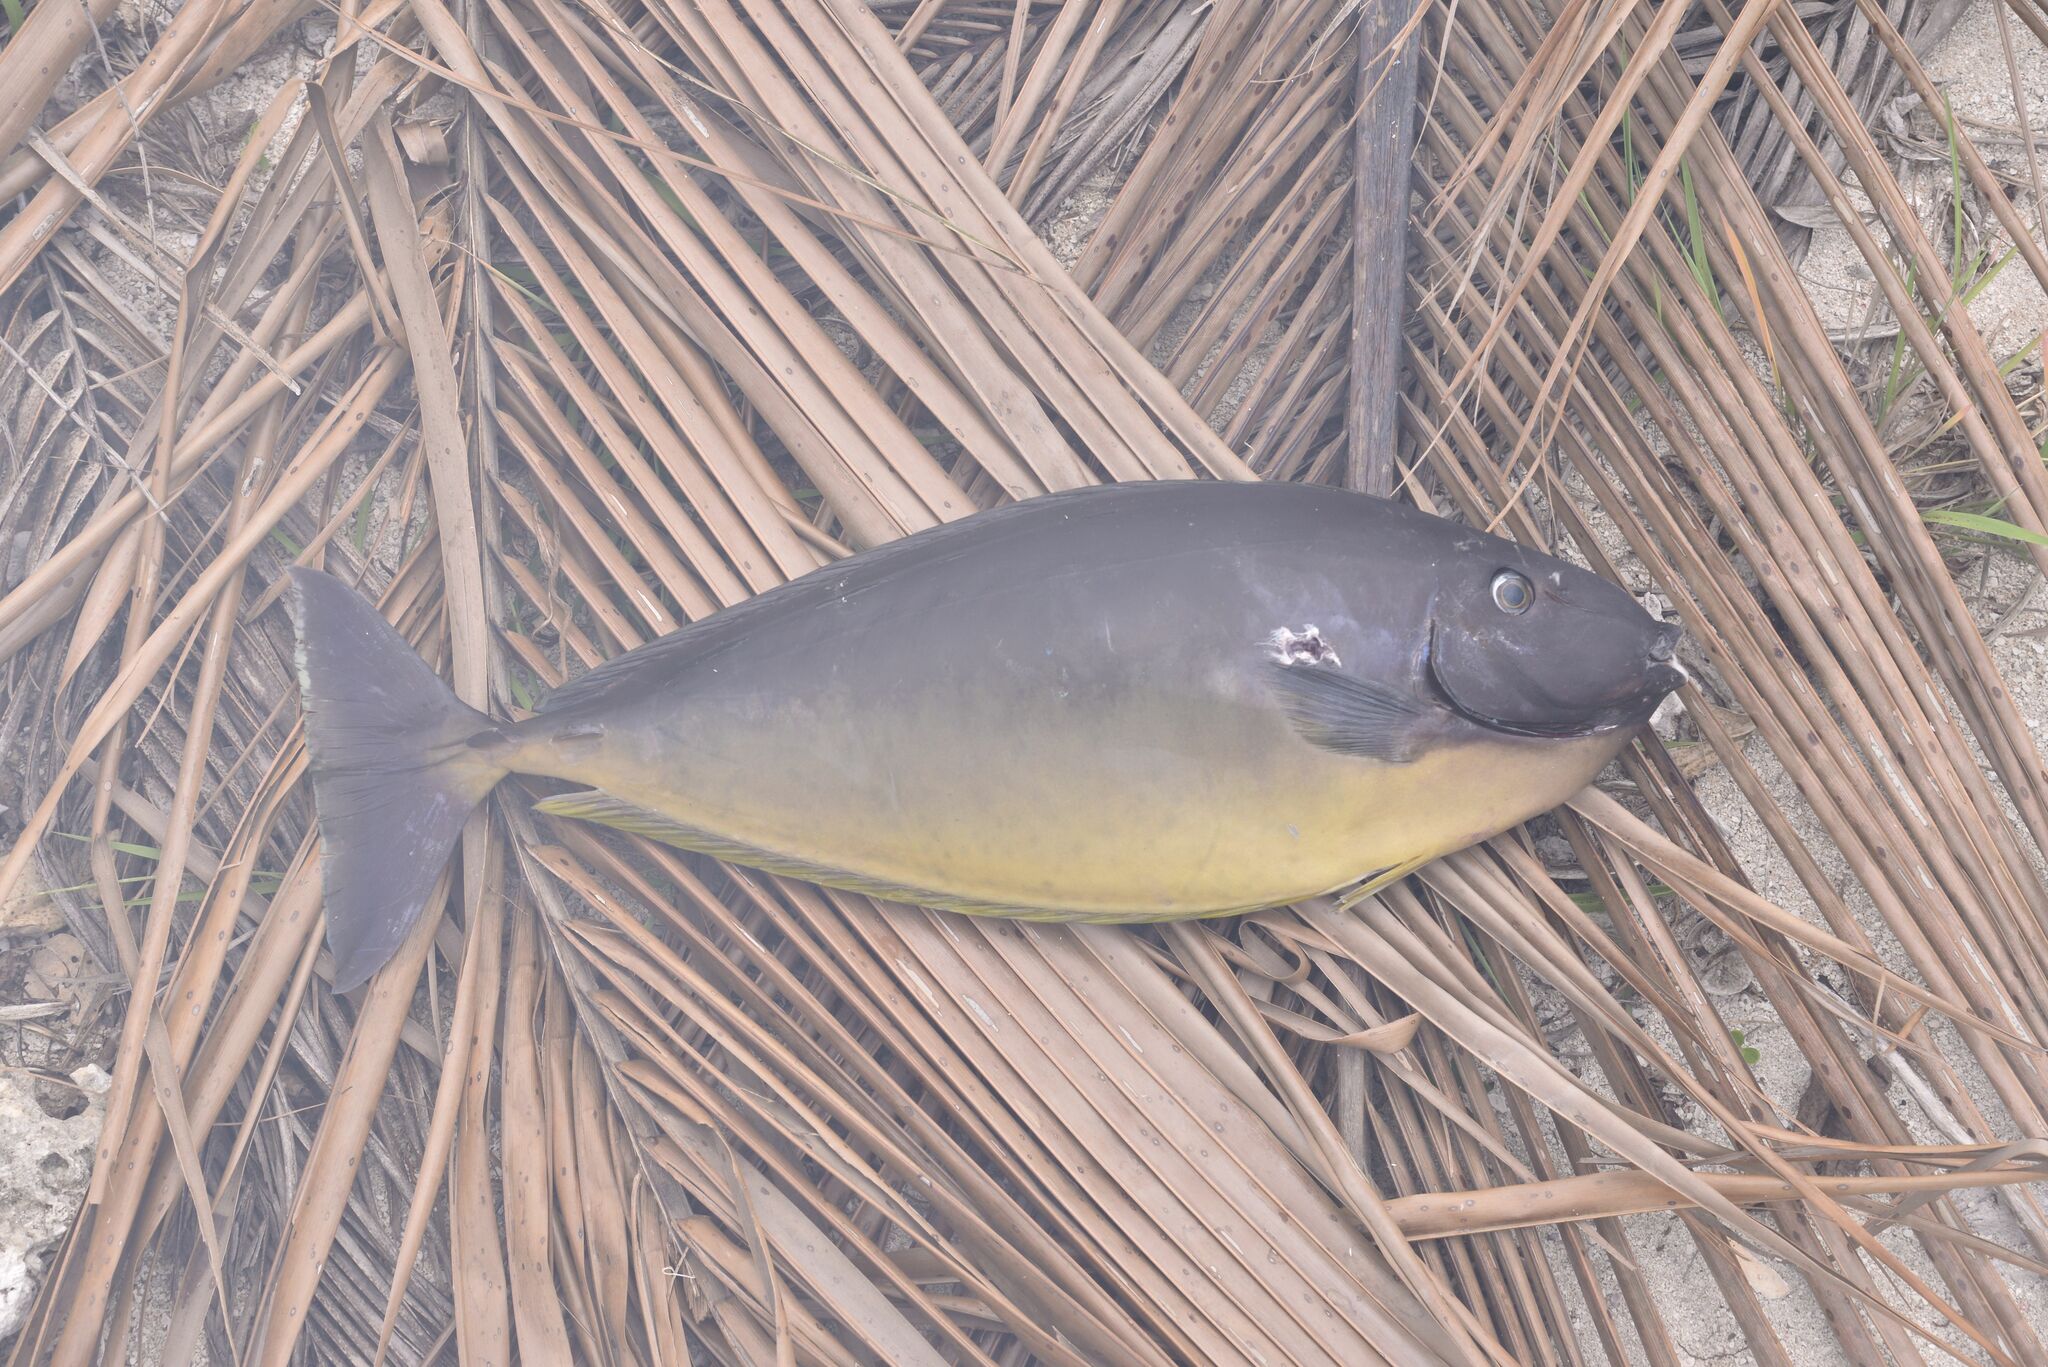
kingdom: Animalia
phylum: Chordata
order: Perciformes
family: Acanthuridae
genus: Naso
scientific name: Naso hexacanthus
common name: Black unicornfish
